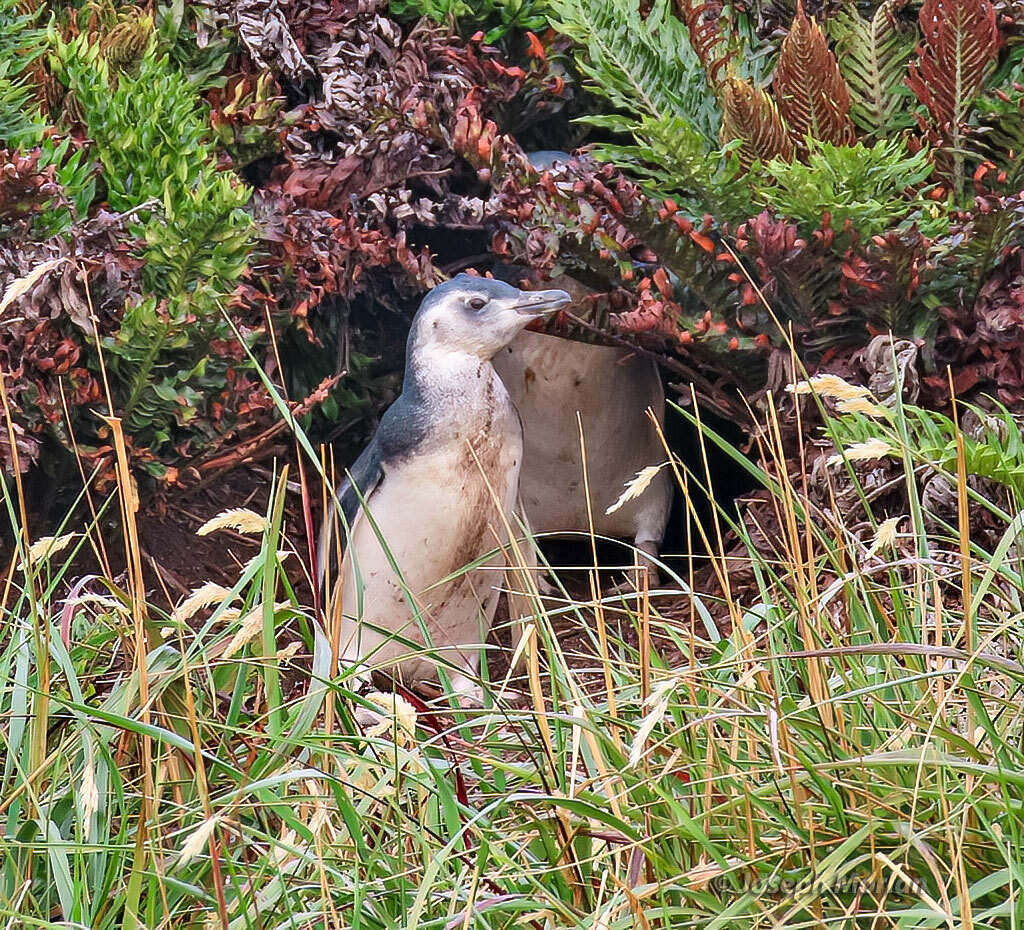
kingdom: Animalia
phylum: Chordata
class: Aves
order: Sphenisciformes
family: Spheniscidae
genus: Spheniscus
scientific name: Spheniscus magellanicus
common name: Magellanic penguin
